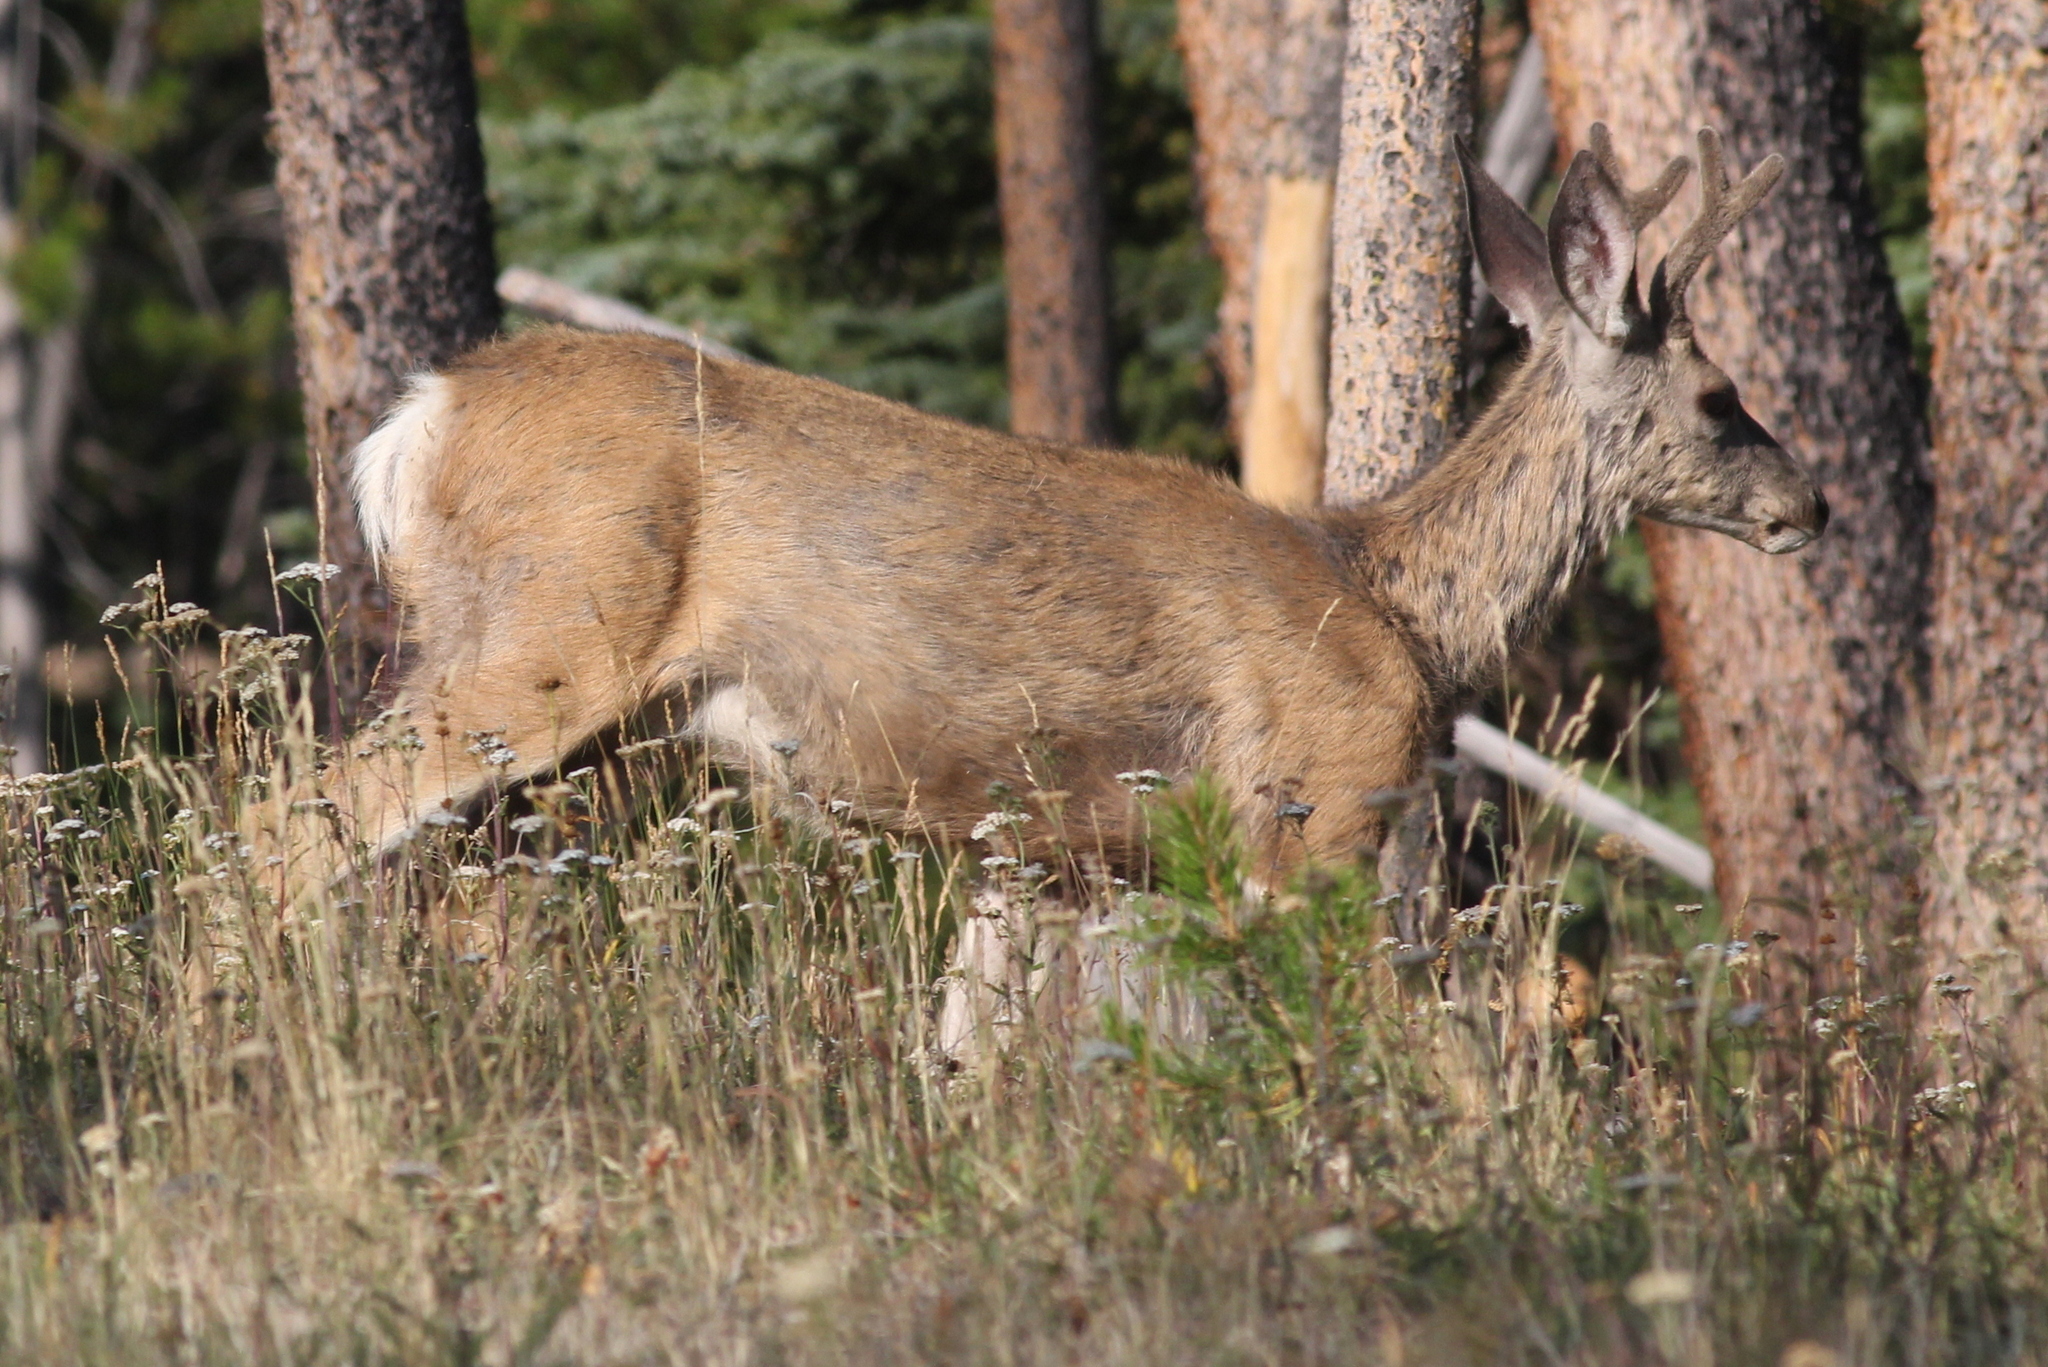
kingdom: Animalia
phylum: Chordata
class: Mammalia
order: Artiodactyla
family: Cervidae
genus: Odocoileus
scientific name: Odocoileus hemionus
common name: Mule deer
